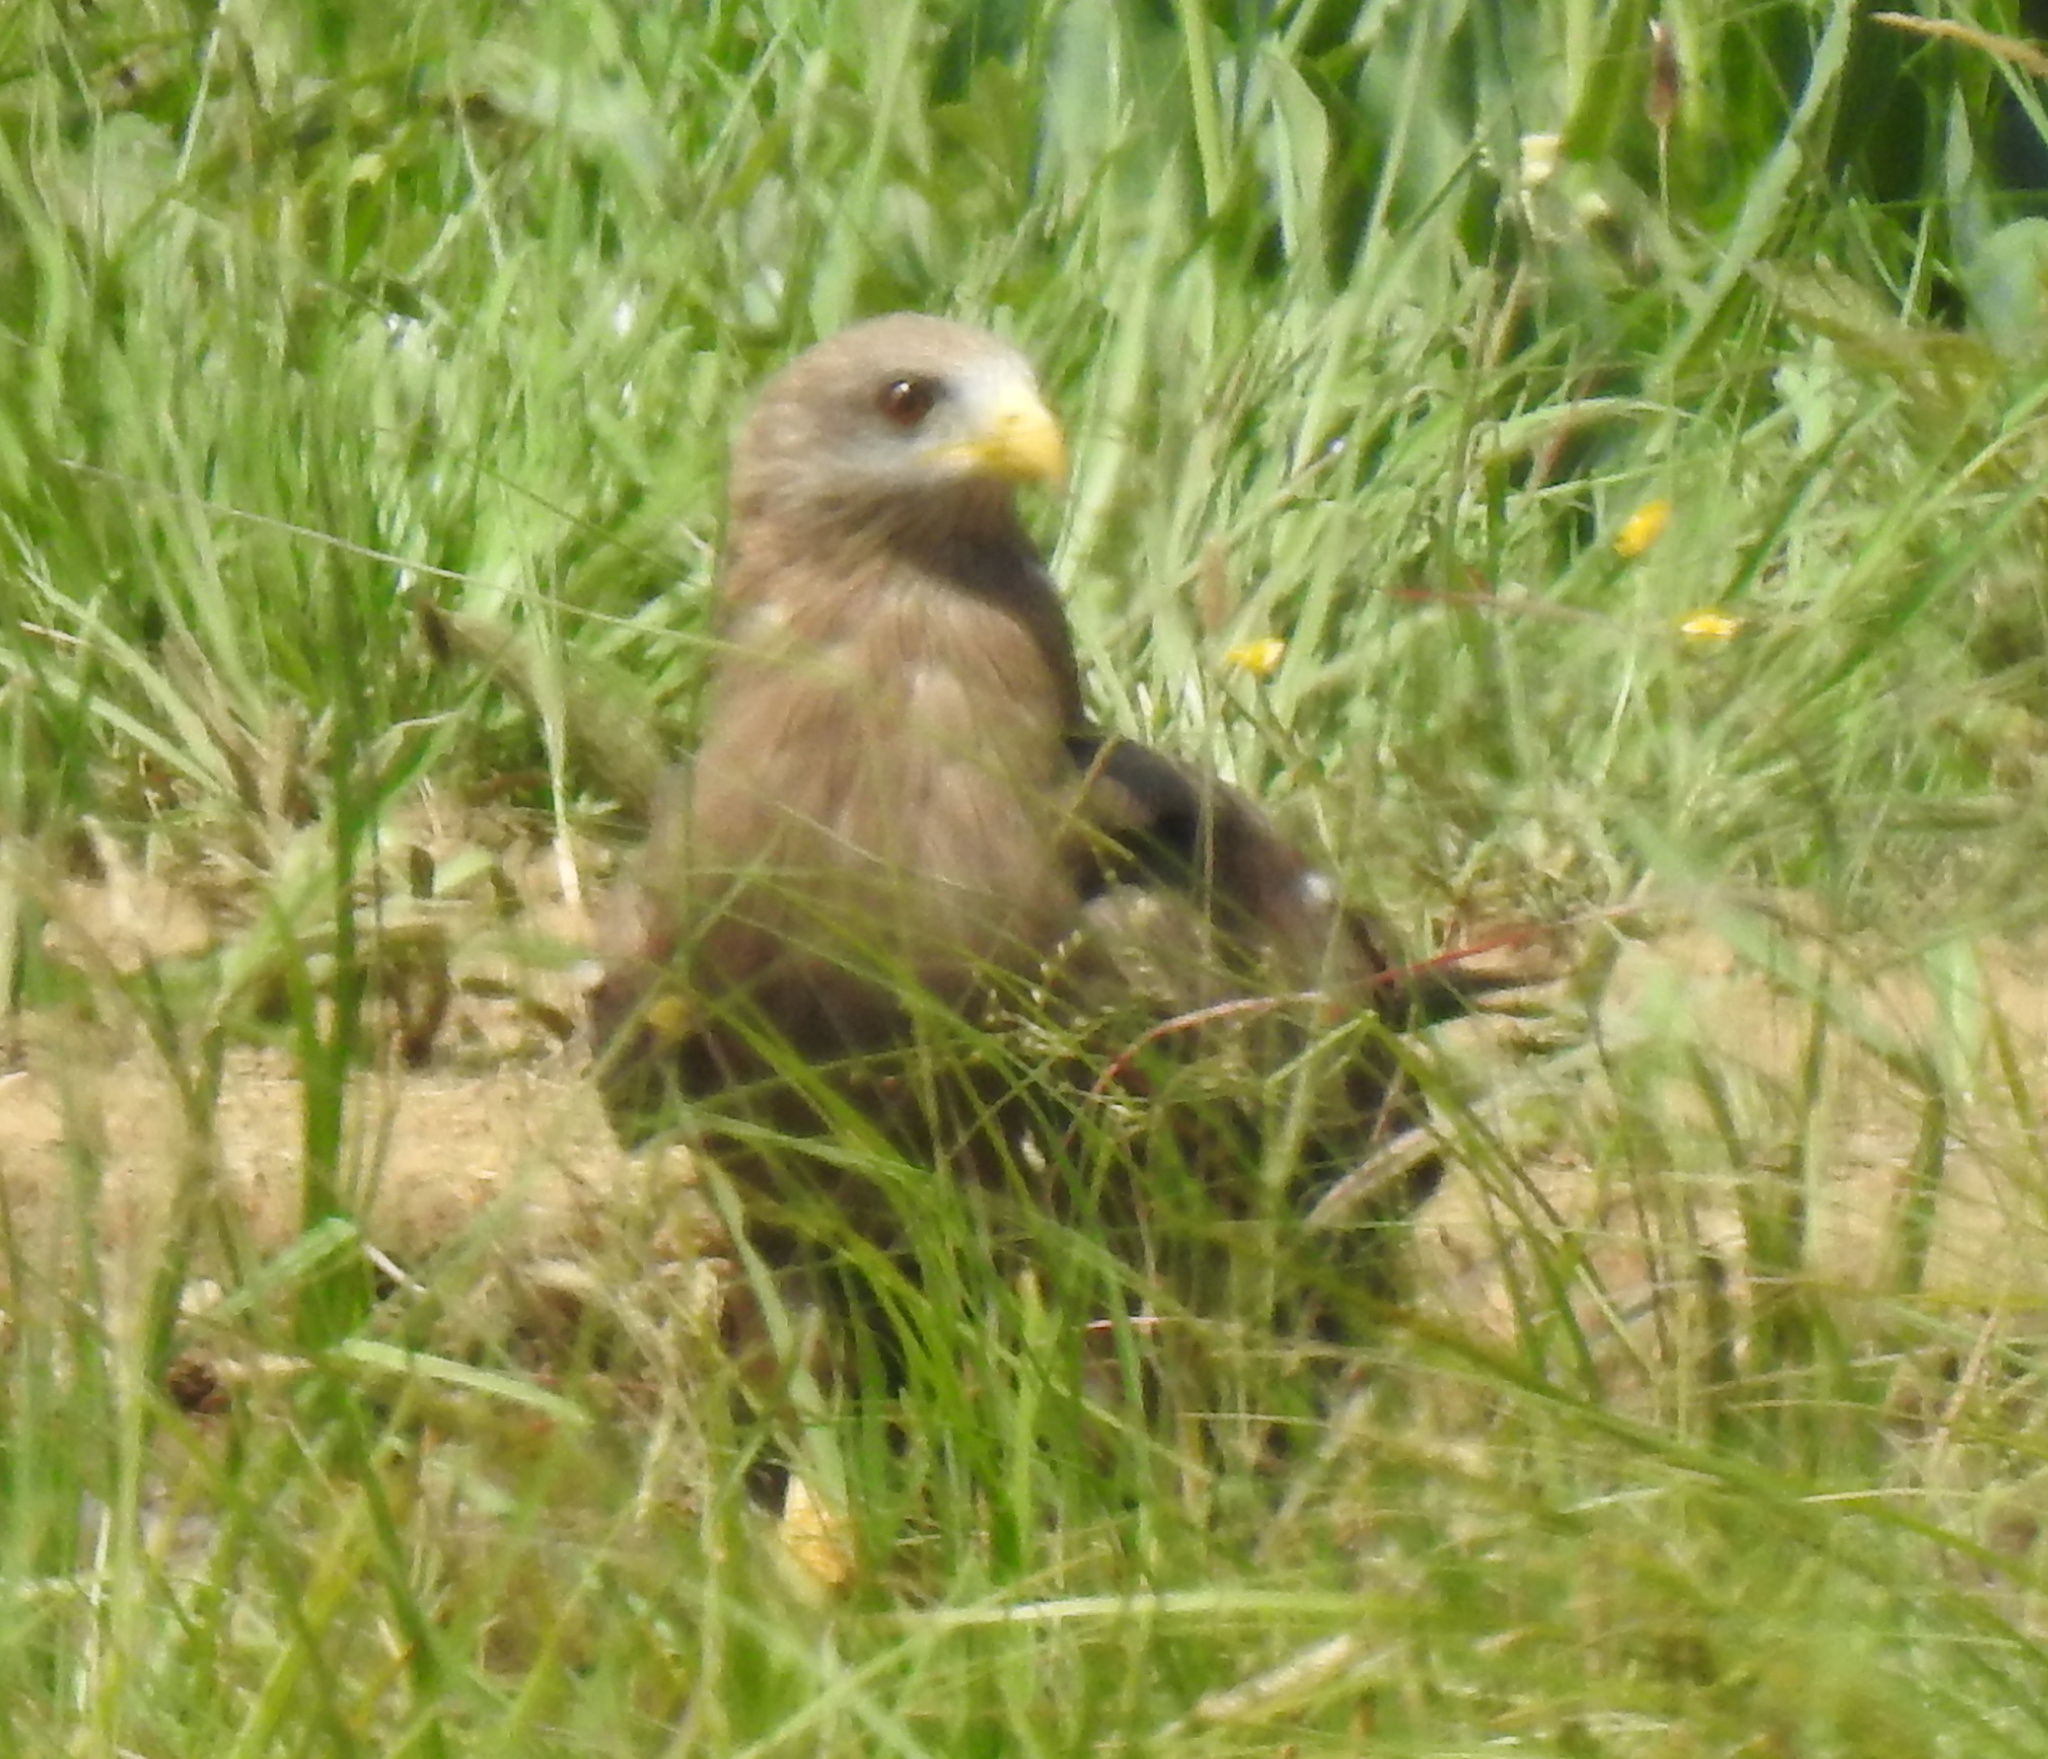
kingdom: Animalia
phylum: Chordata
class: Aves
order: Accipitriformes
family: Accipitridae
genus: Milvus
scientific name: Milvus migrans
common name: Black kite
